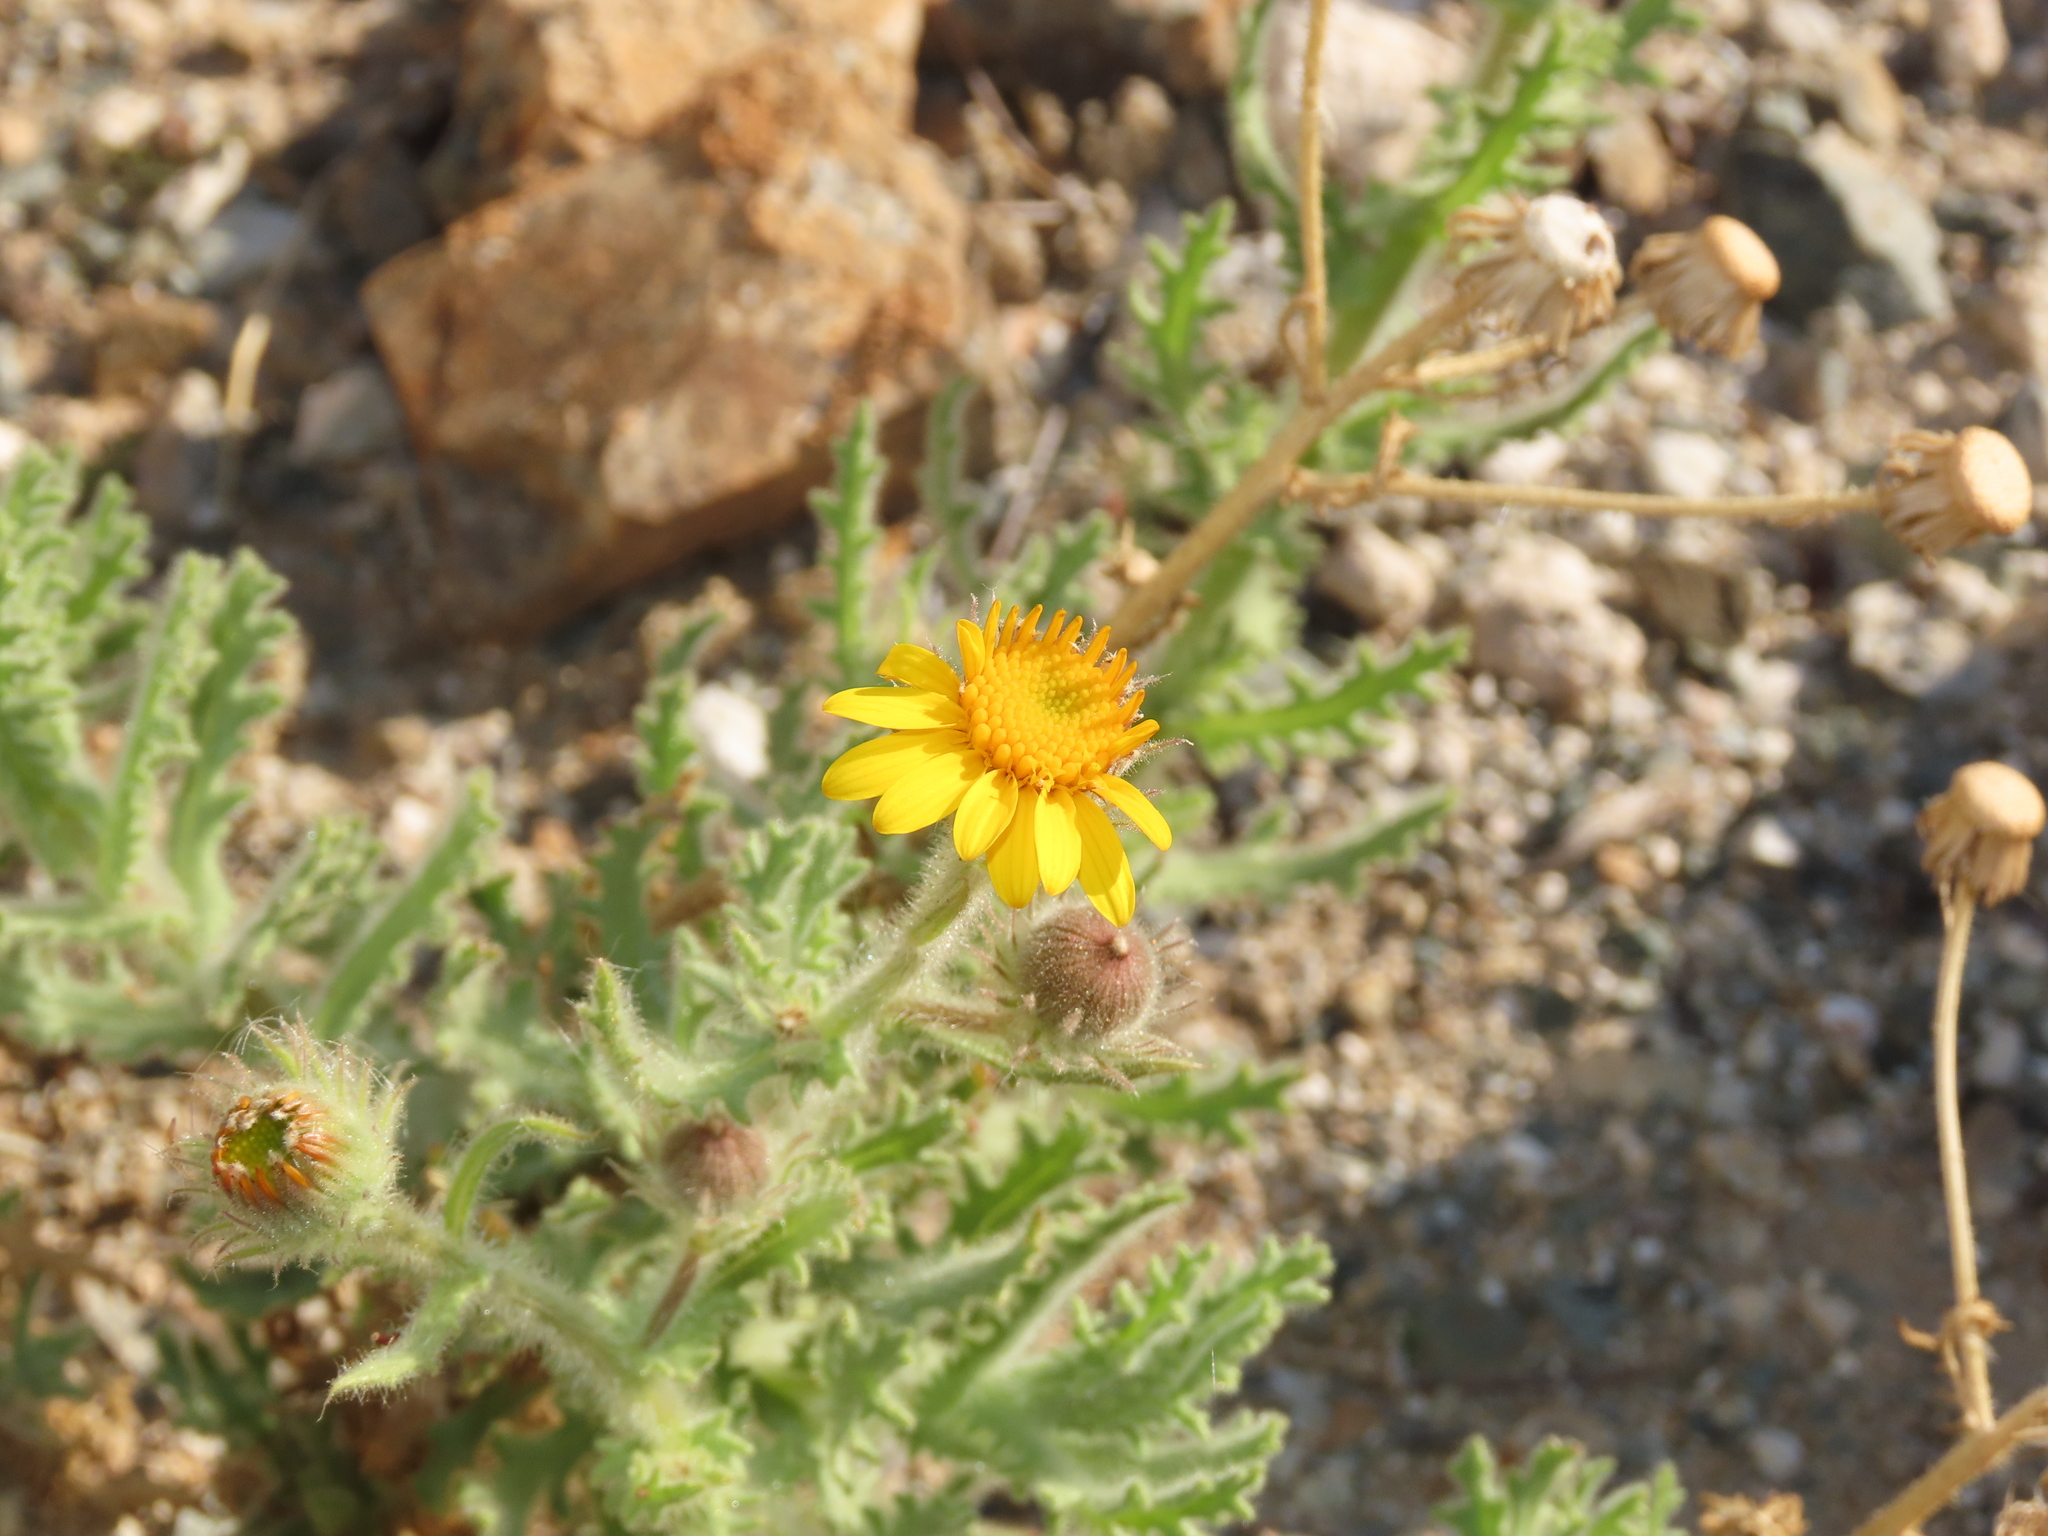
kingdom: Plantae
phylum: Tracheophyta
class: Magnoliopsida
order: Asterales
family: Asteraceae
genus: Senecio
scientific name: Senecio adenotrichius
